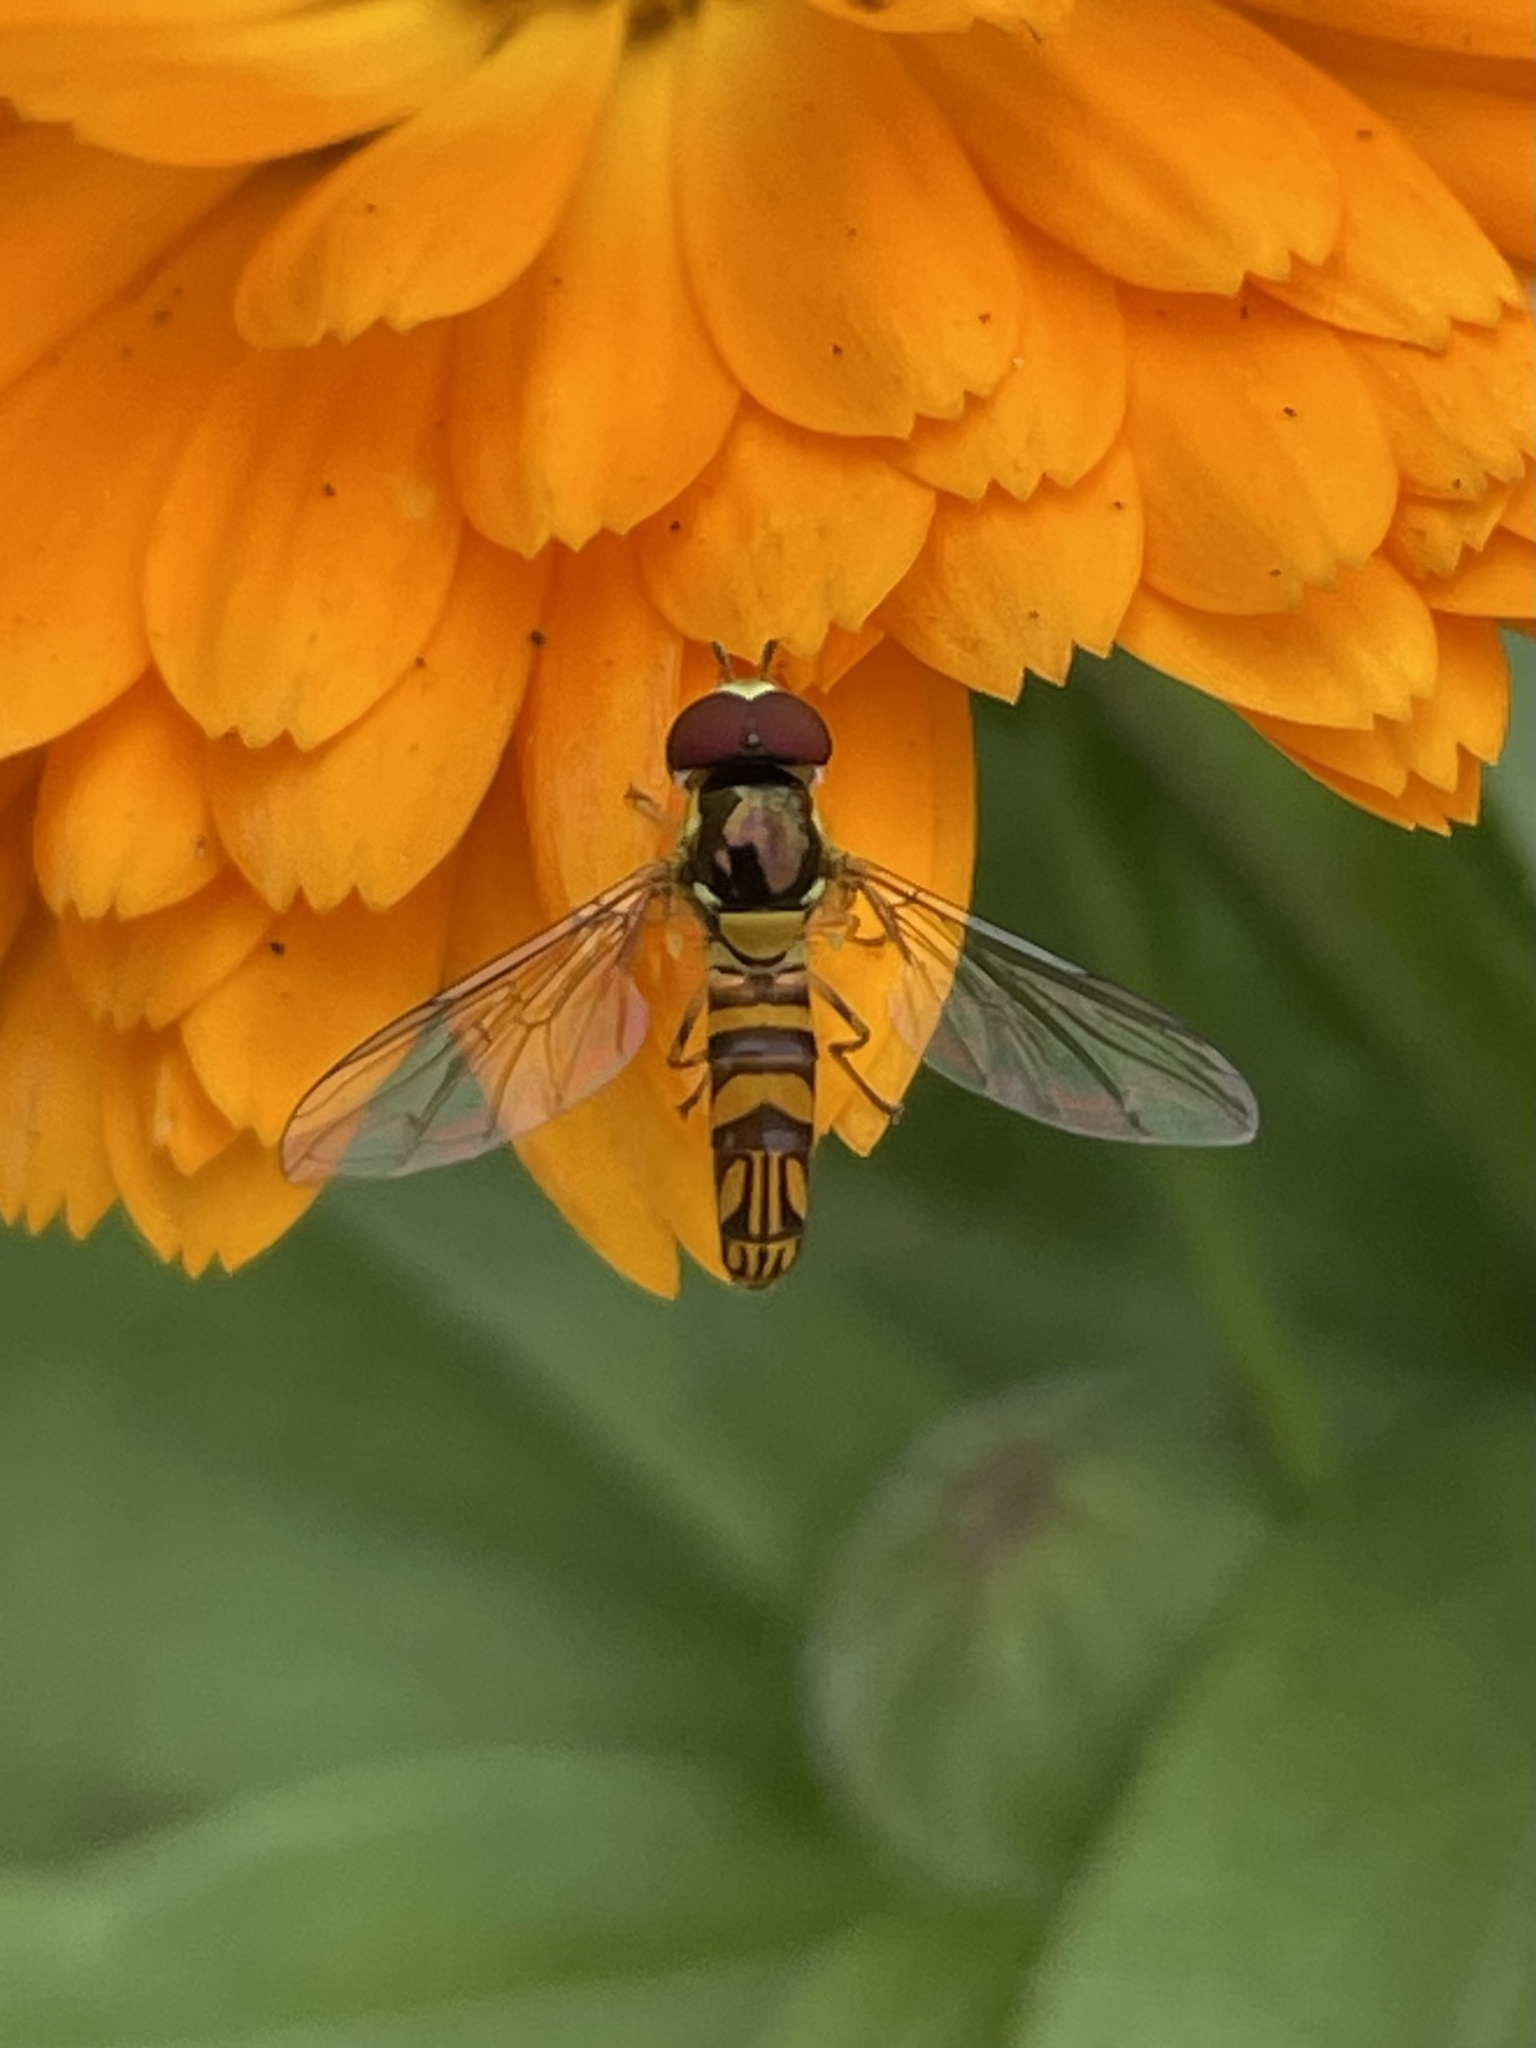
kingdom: Animalia
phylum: Arthropoda
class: Insecta
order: Diptera
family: Syrphidae
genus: Allograpta
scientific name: Allograpta obliqua
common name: Common oblique syrphid
